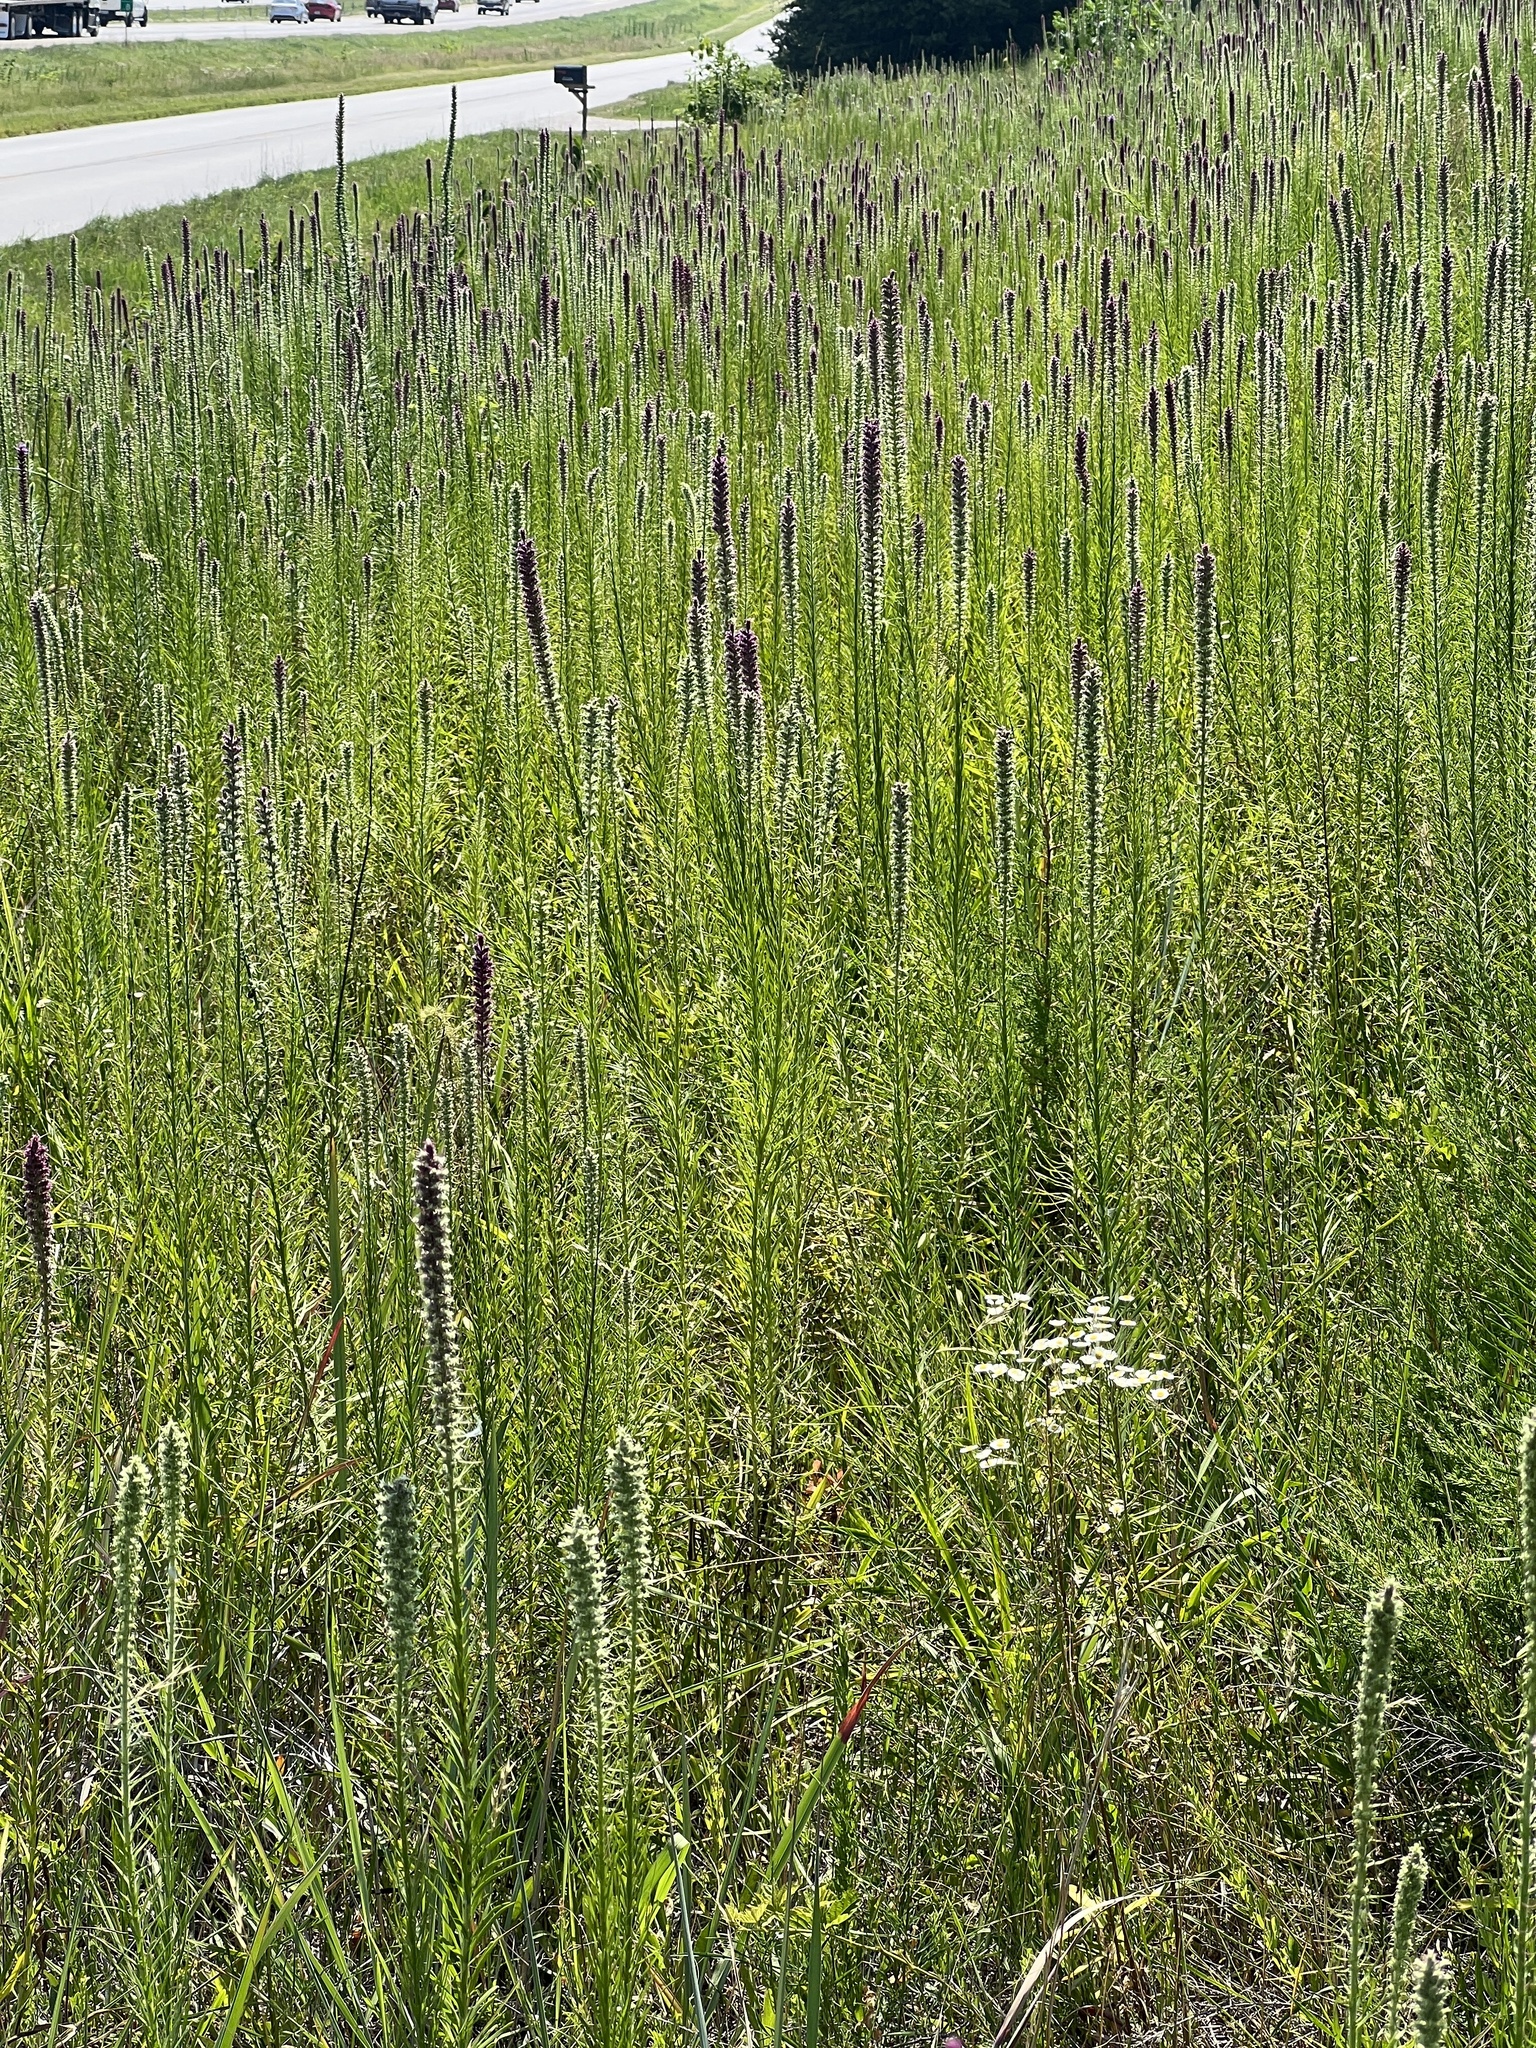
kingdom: Plantae
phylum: Tracheophyta
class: Magnoliopsida
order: Asterales
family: Asteraceae
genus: Liatris
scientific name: Liatris pycnostachya
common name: Cattail gayfeather
